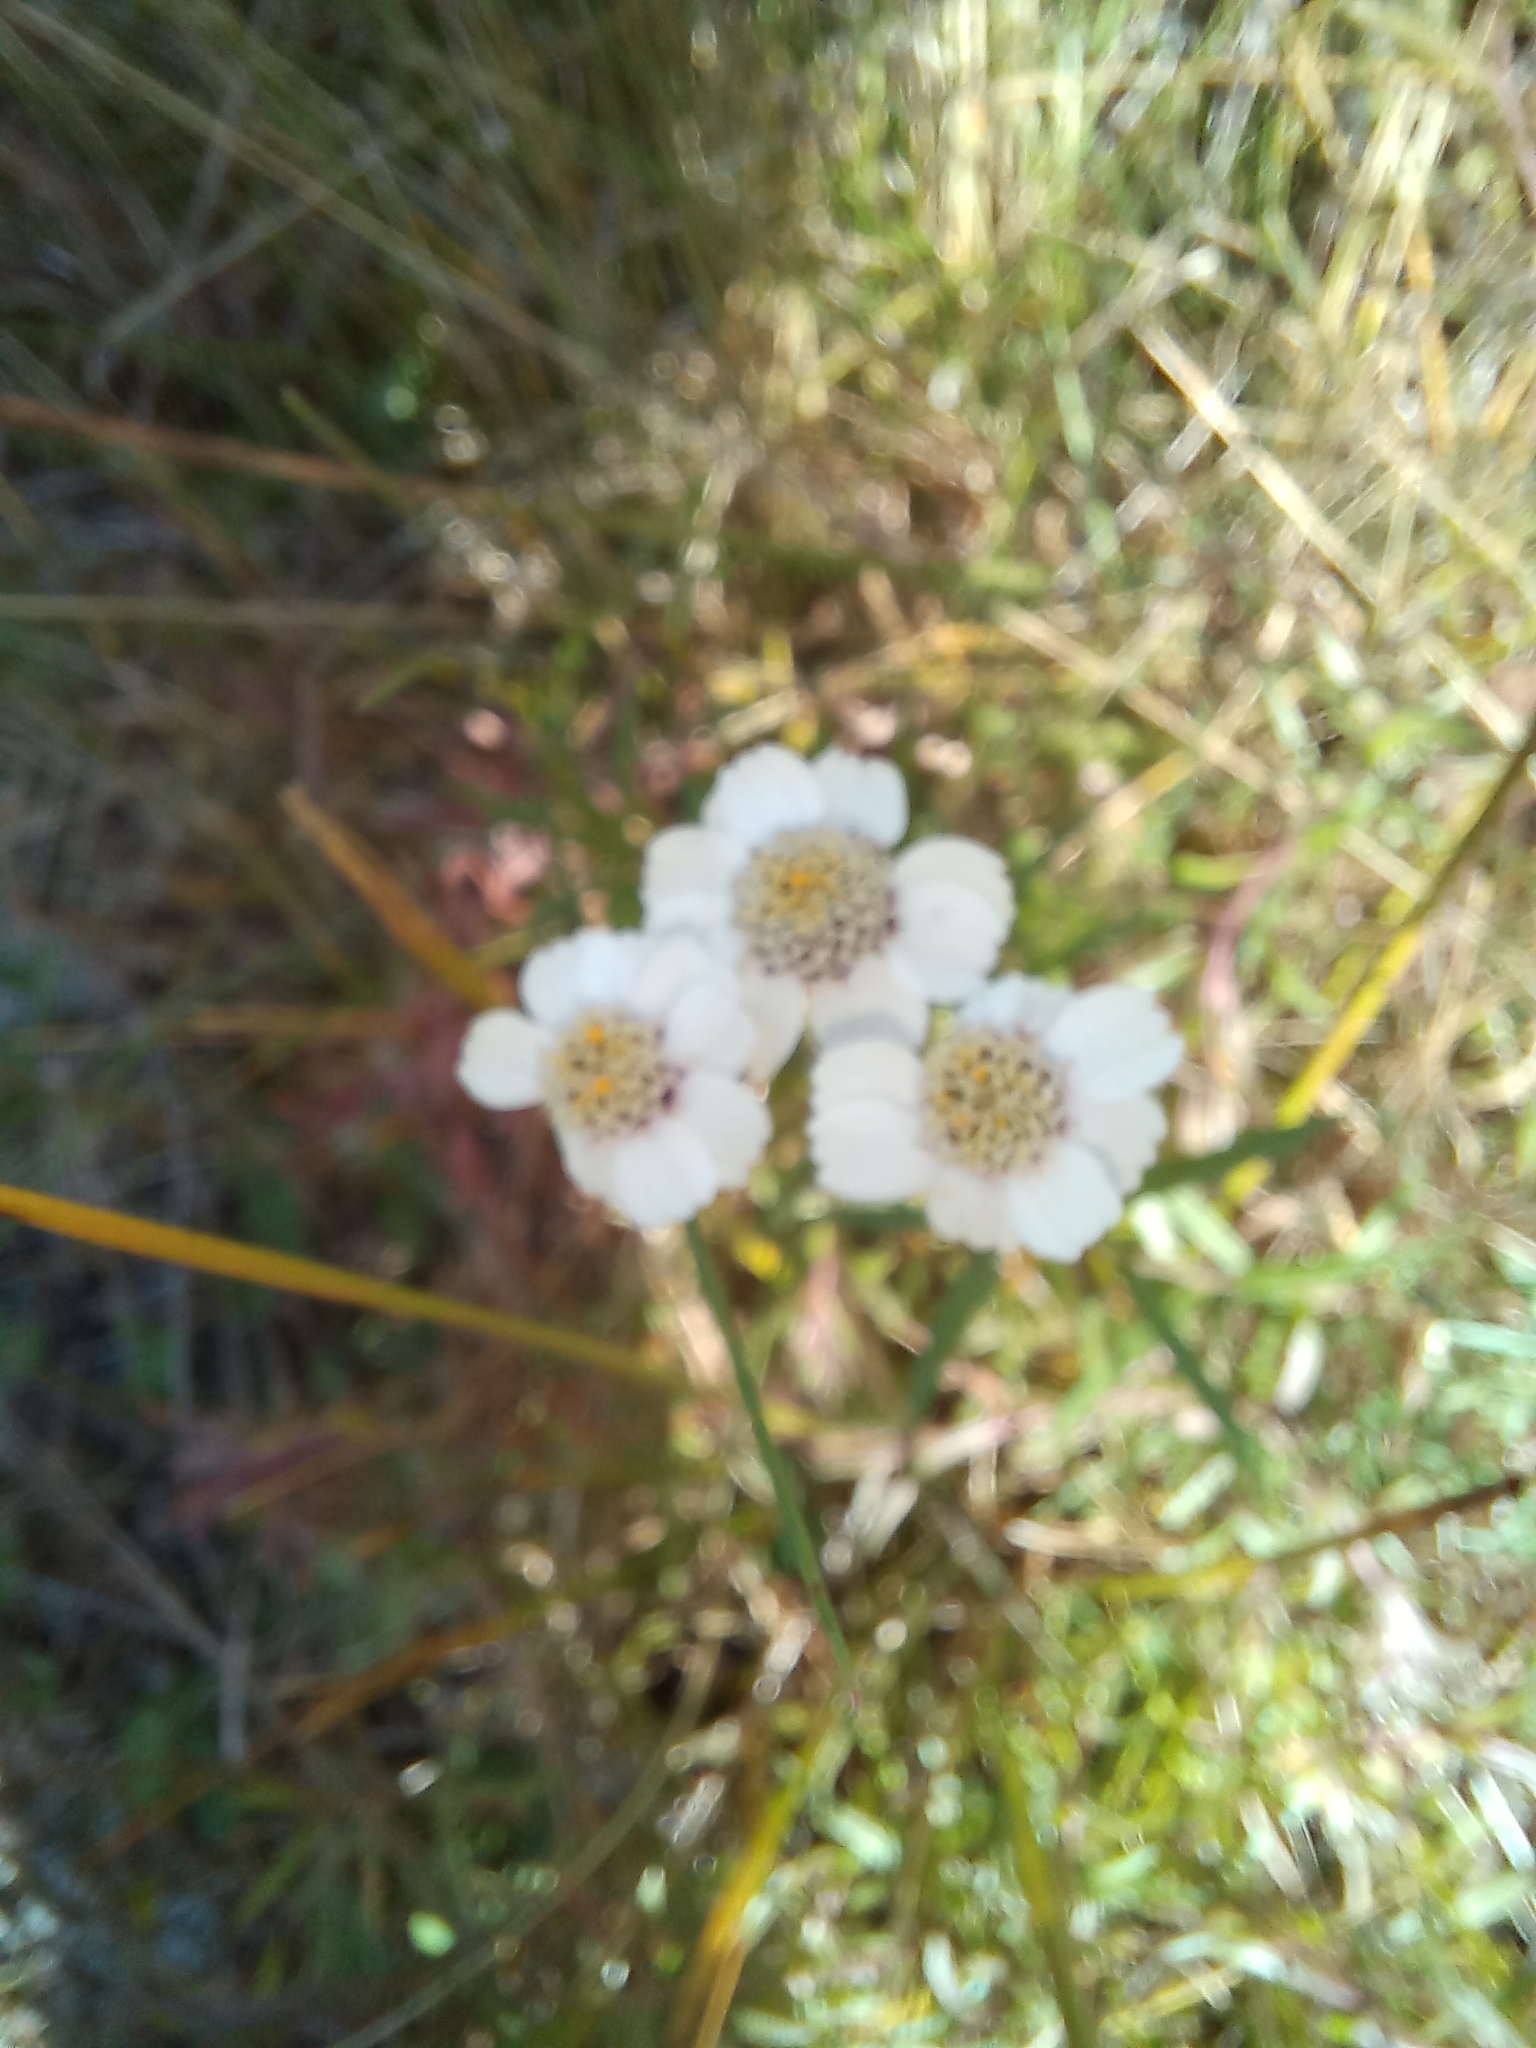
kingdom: Plantae
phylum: Tracheophyta
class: Magnoliopsida
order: Asterales
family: Asteraceae
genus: Achillea
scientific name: Achillea ptarmica
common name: Sneezeweed
